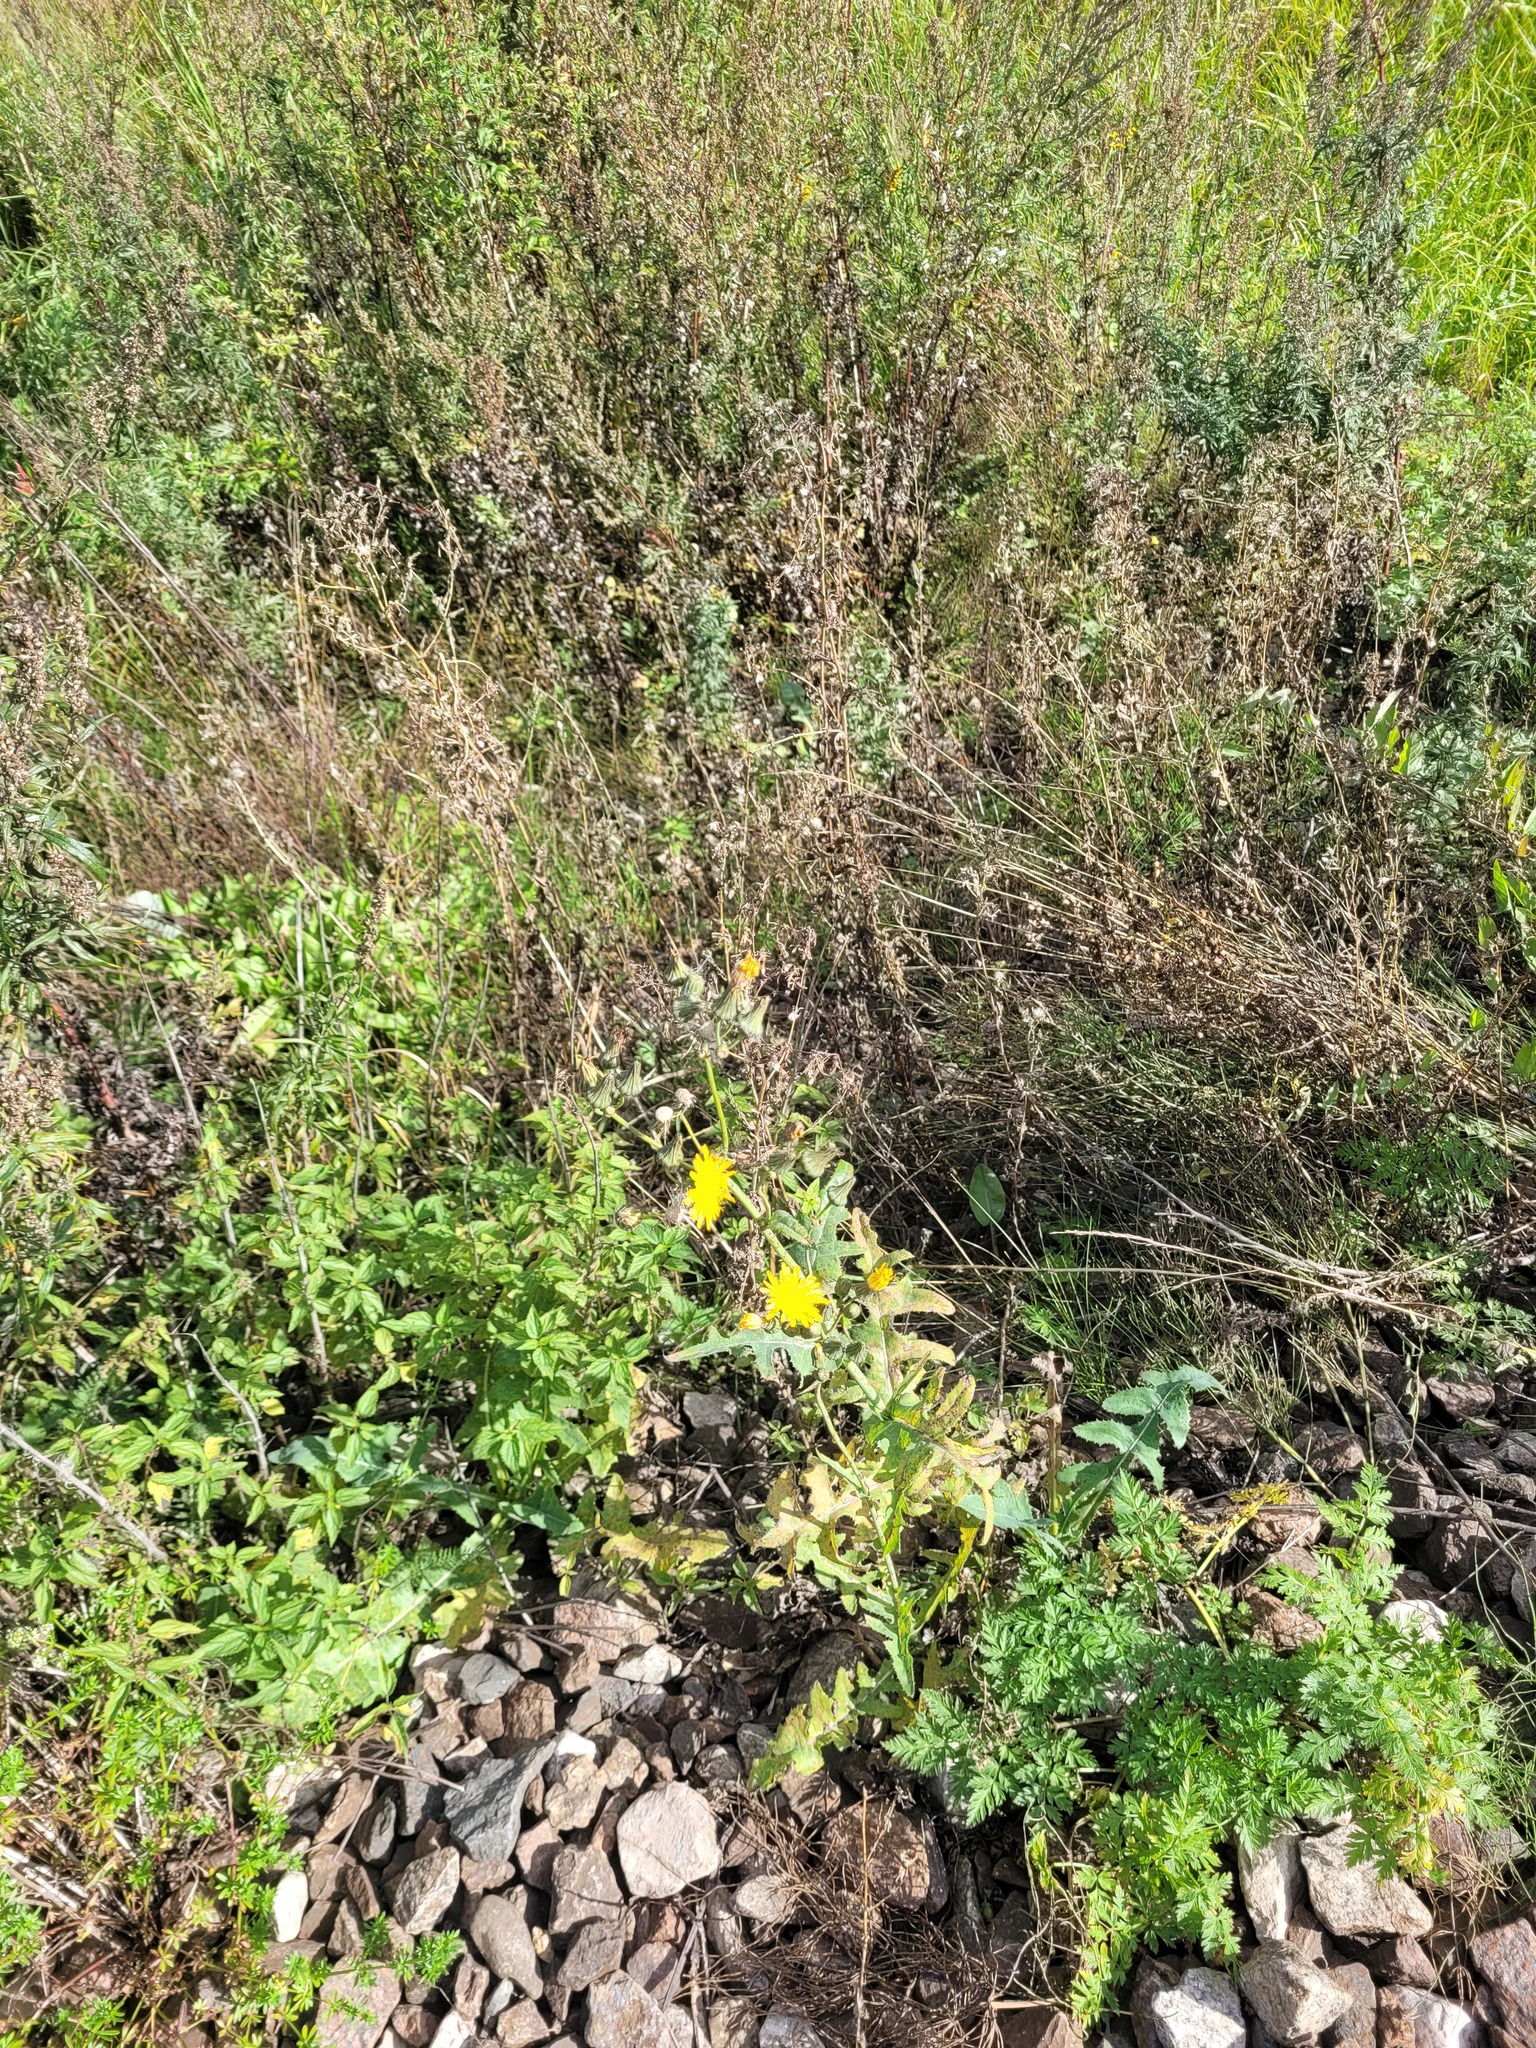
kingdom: Plantae
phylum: Tracheophyta
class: Magnoliopsida
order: Asterales
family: Asteraceae
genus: Sonchus
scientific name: Sonchus arvensis
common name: Perennial sow-thistle
